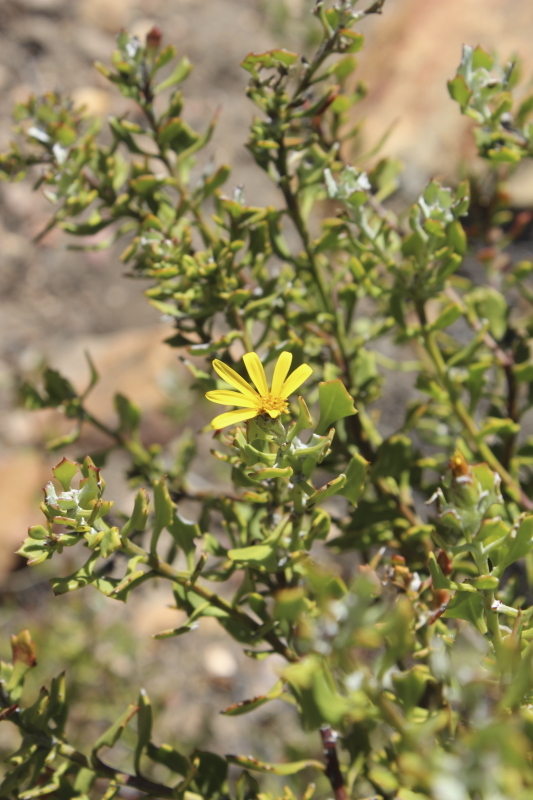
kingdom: Plantae
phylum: Tracheophyta
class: Magnoliopsida
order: Asterales
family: Asteraceae
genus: Osteospermum
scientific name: Osteospermum moniliferum
